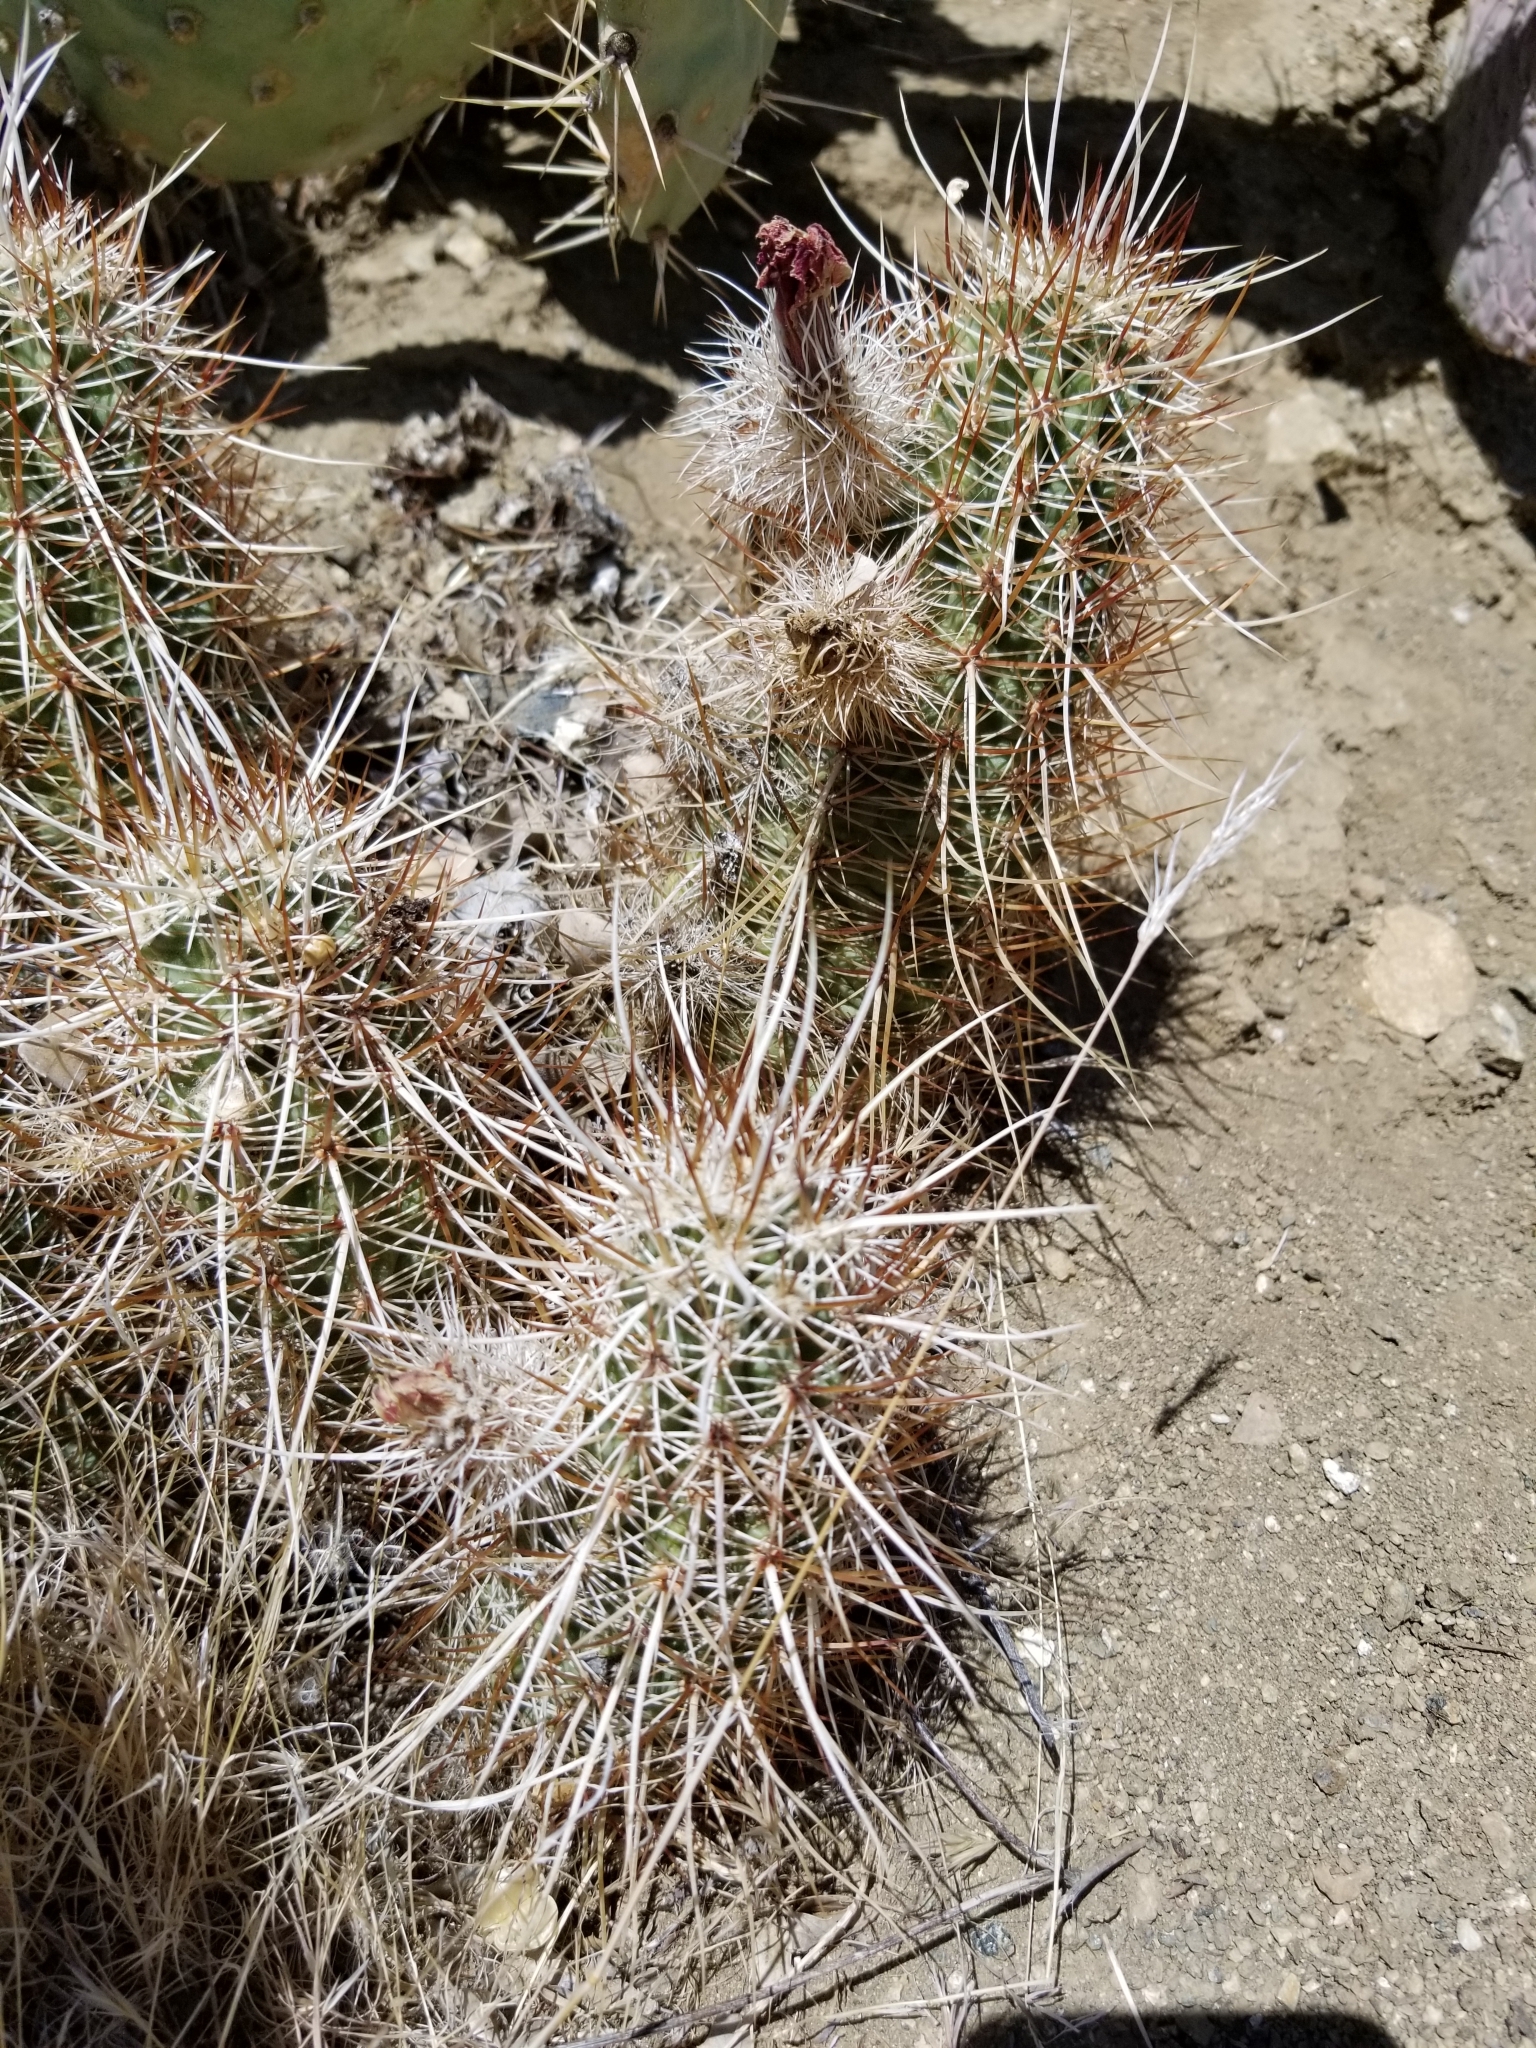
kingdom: Plantae
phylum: Tracheophyta
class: Magnoliopsida
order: Caryophyllales
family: Cactaceae
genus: Echinocereus
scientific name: Echinocereus engelmannii
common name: Engelmann's hedgehog cactus
